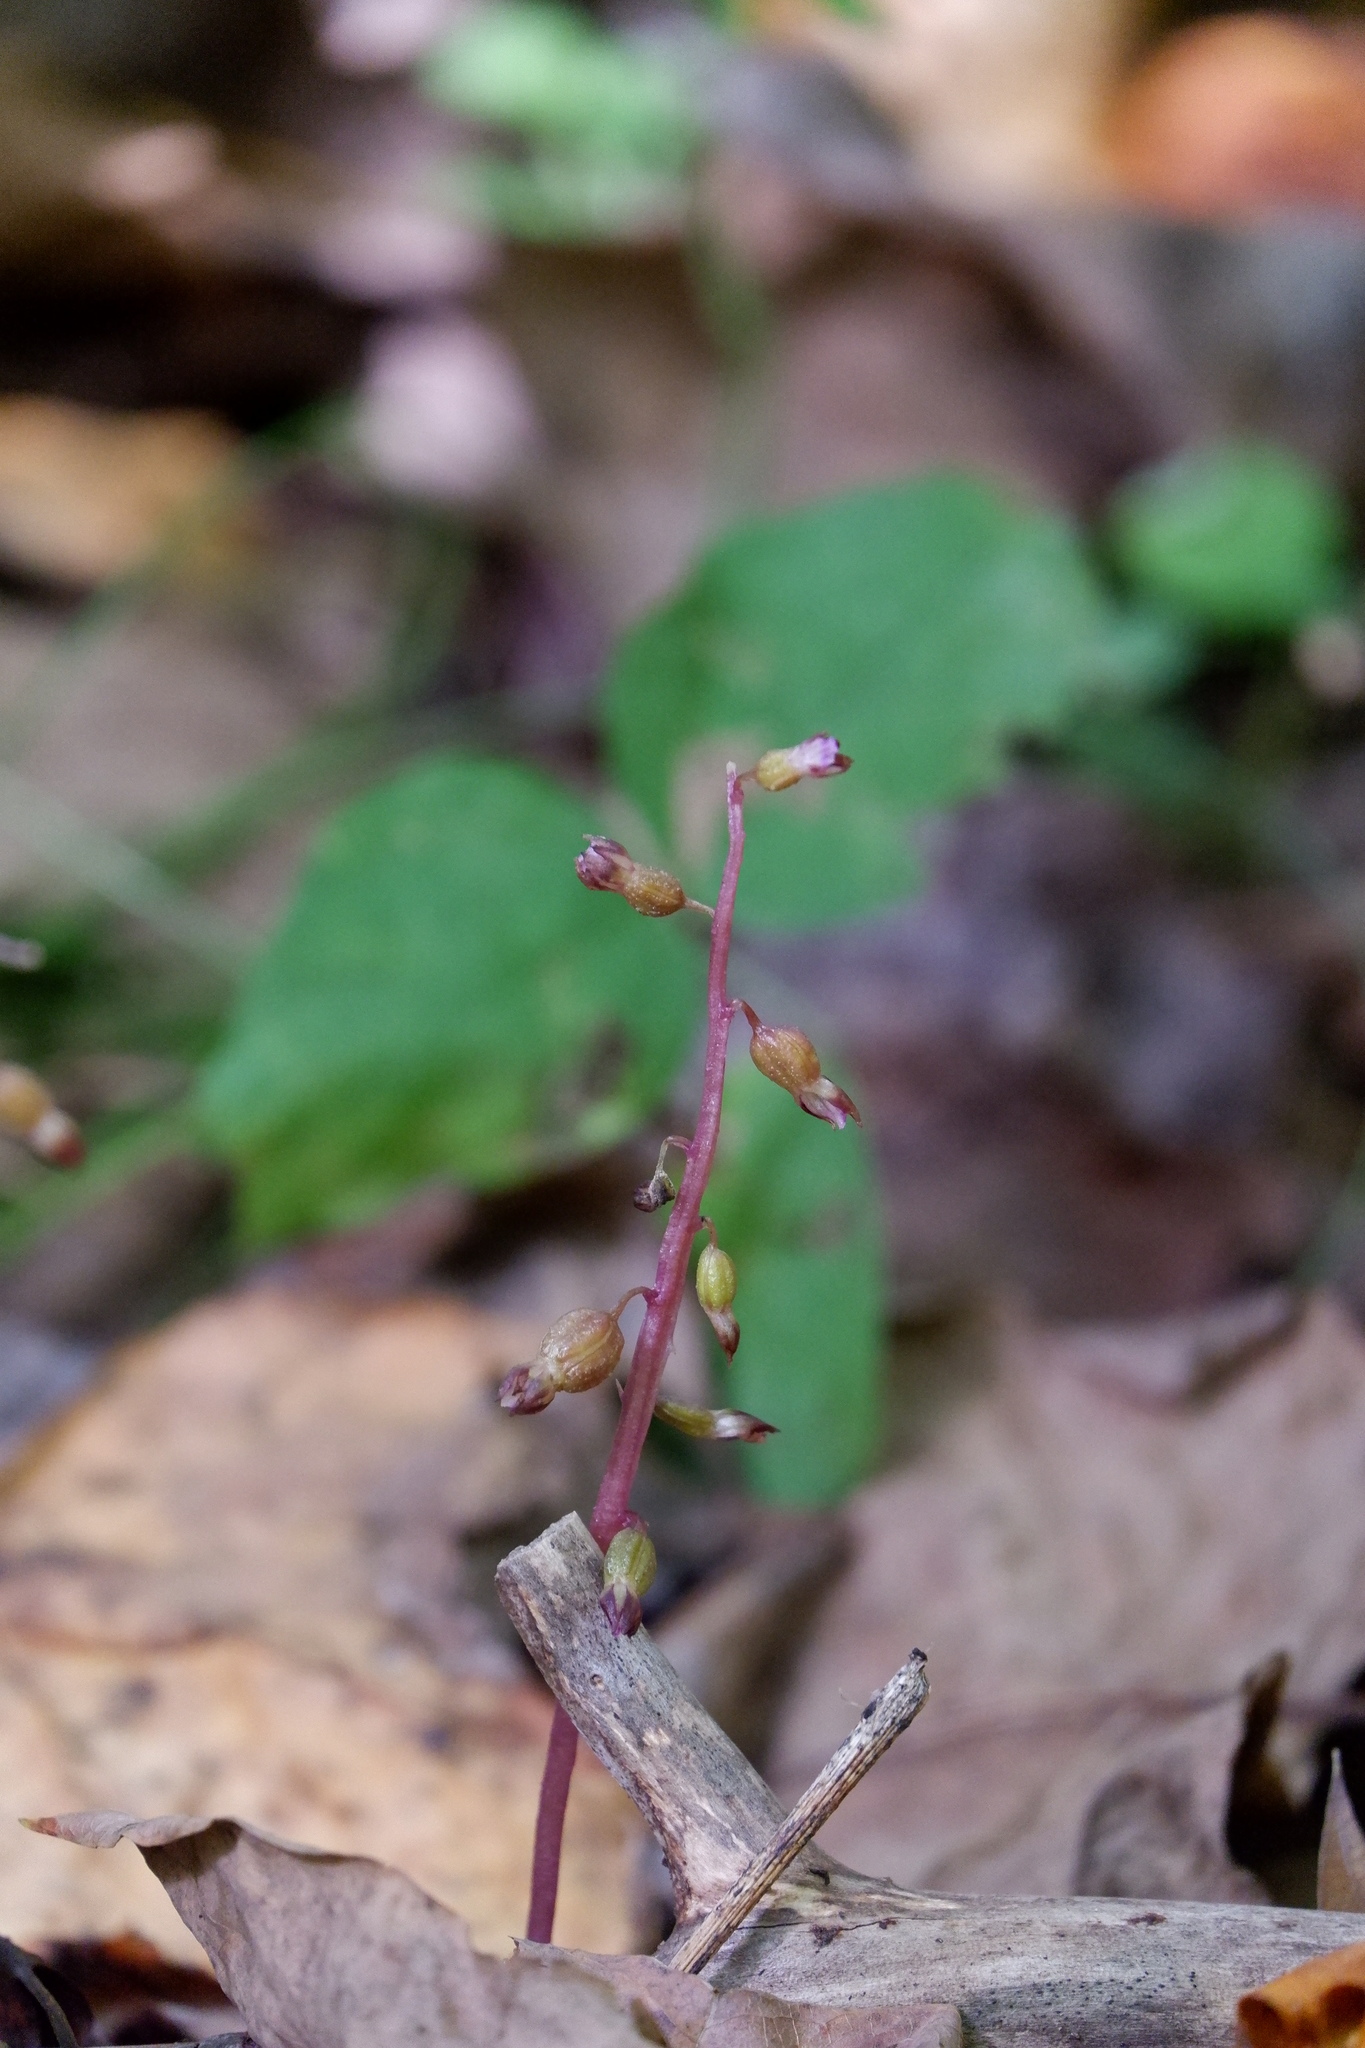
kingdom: Plantae
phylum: Tracheophyta
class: Liliopsida
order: Asparagales
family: Orchidaceae
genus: Corallorhiza
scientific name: Corallorhiza odontorhiza
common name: Autumn coralroot
